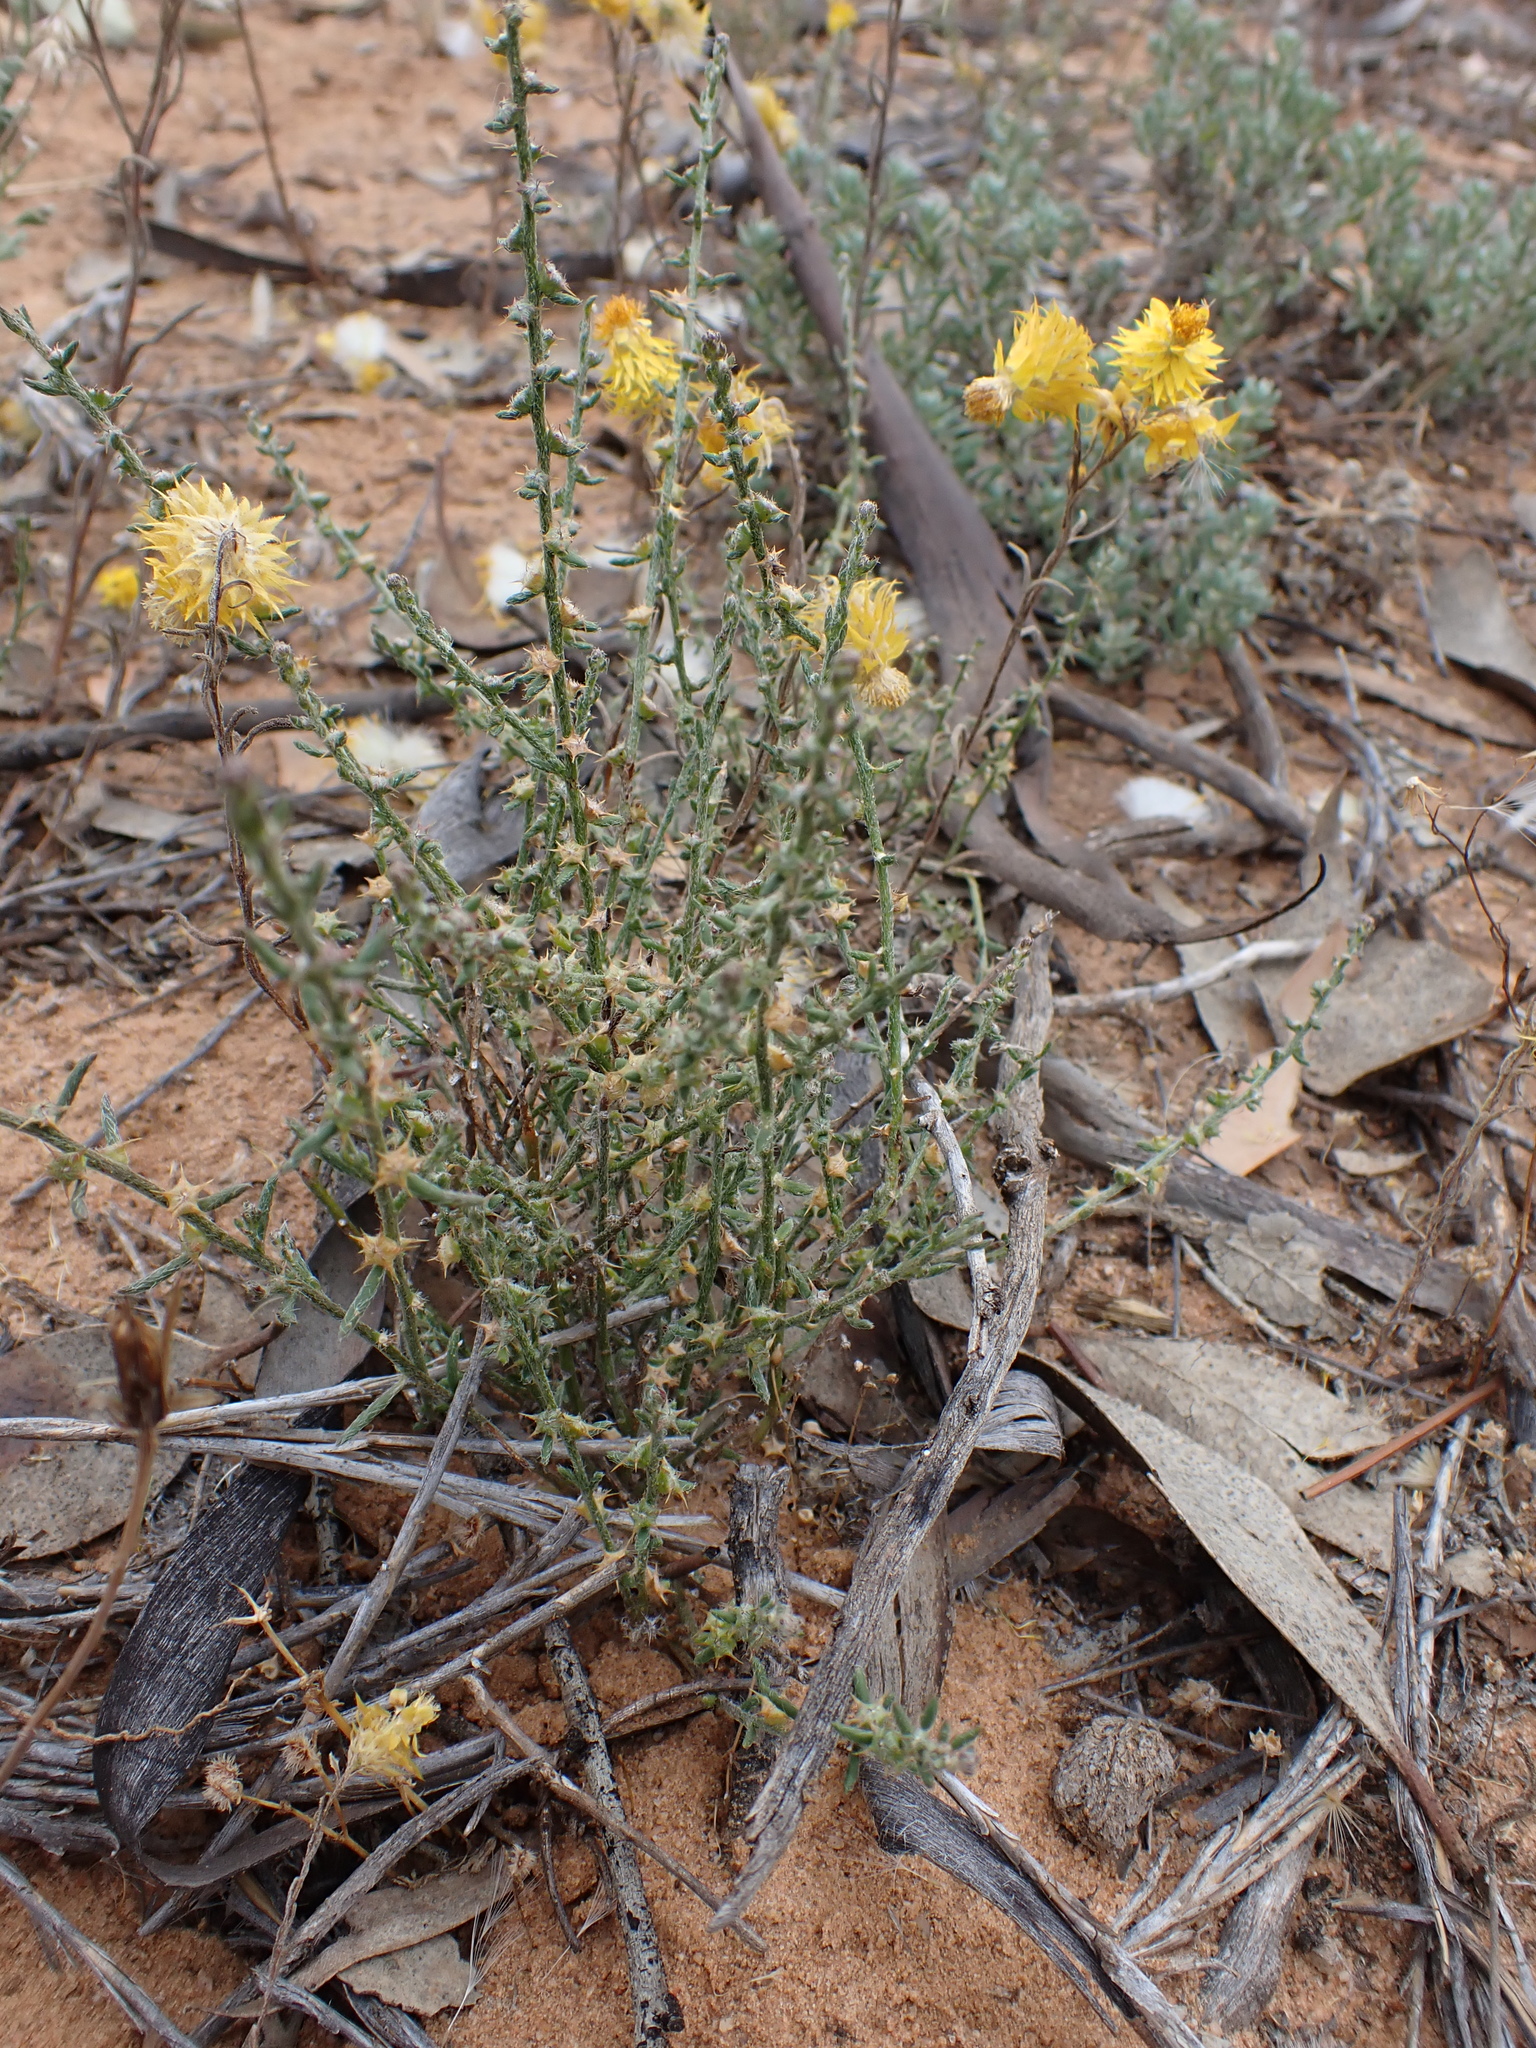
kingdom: Plantae
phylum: Tracheophyta
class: Magnoliopsida
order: Caryophyllales
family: Amaranthaceae
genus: Sclerolaena
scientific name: Sclerolaena parviflora
